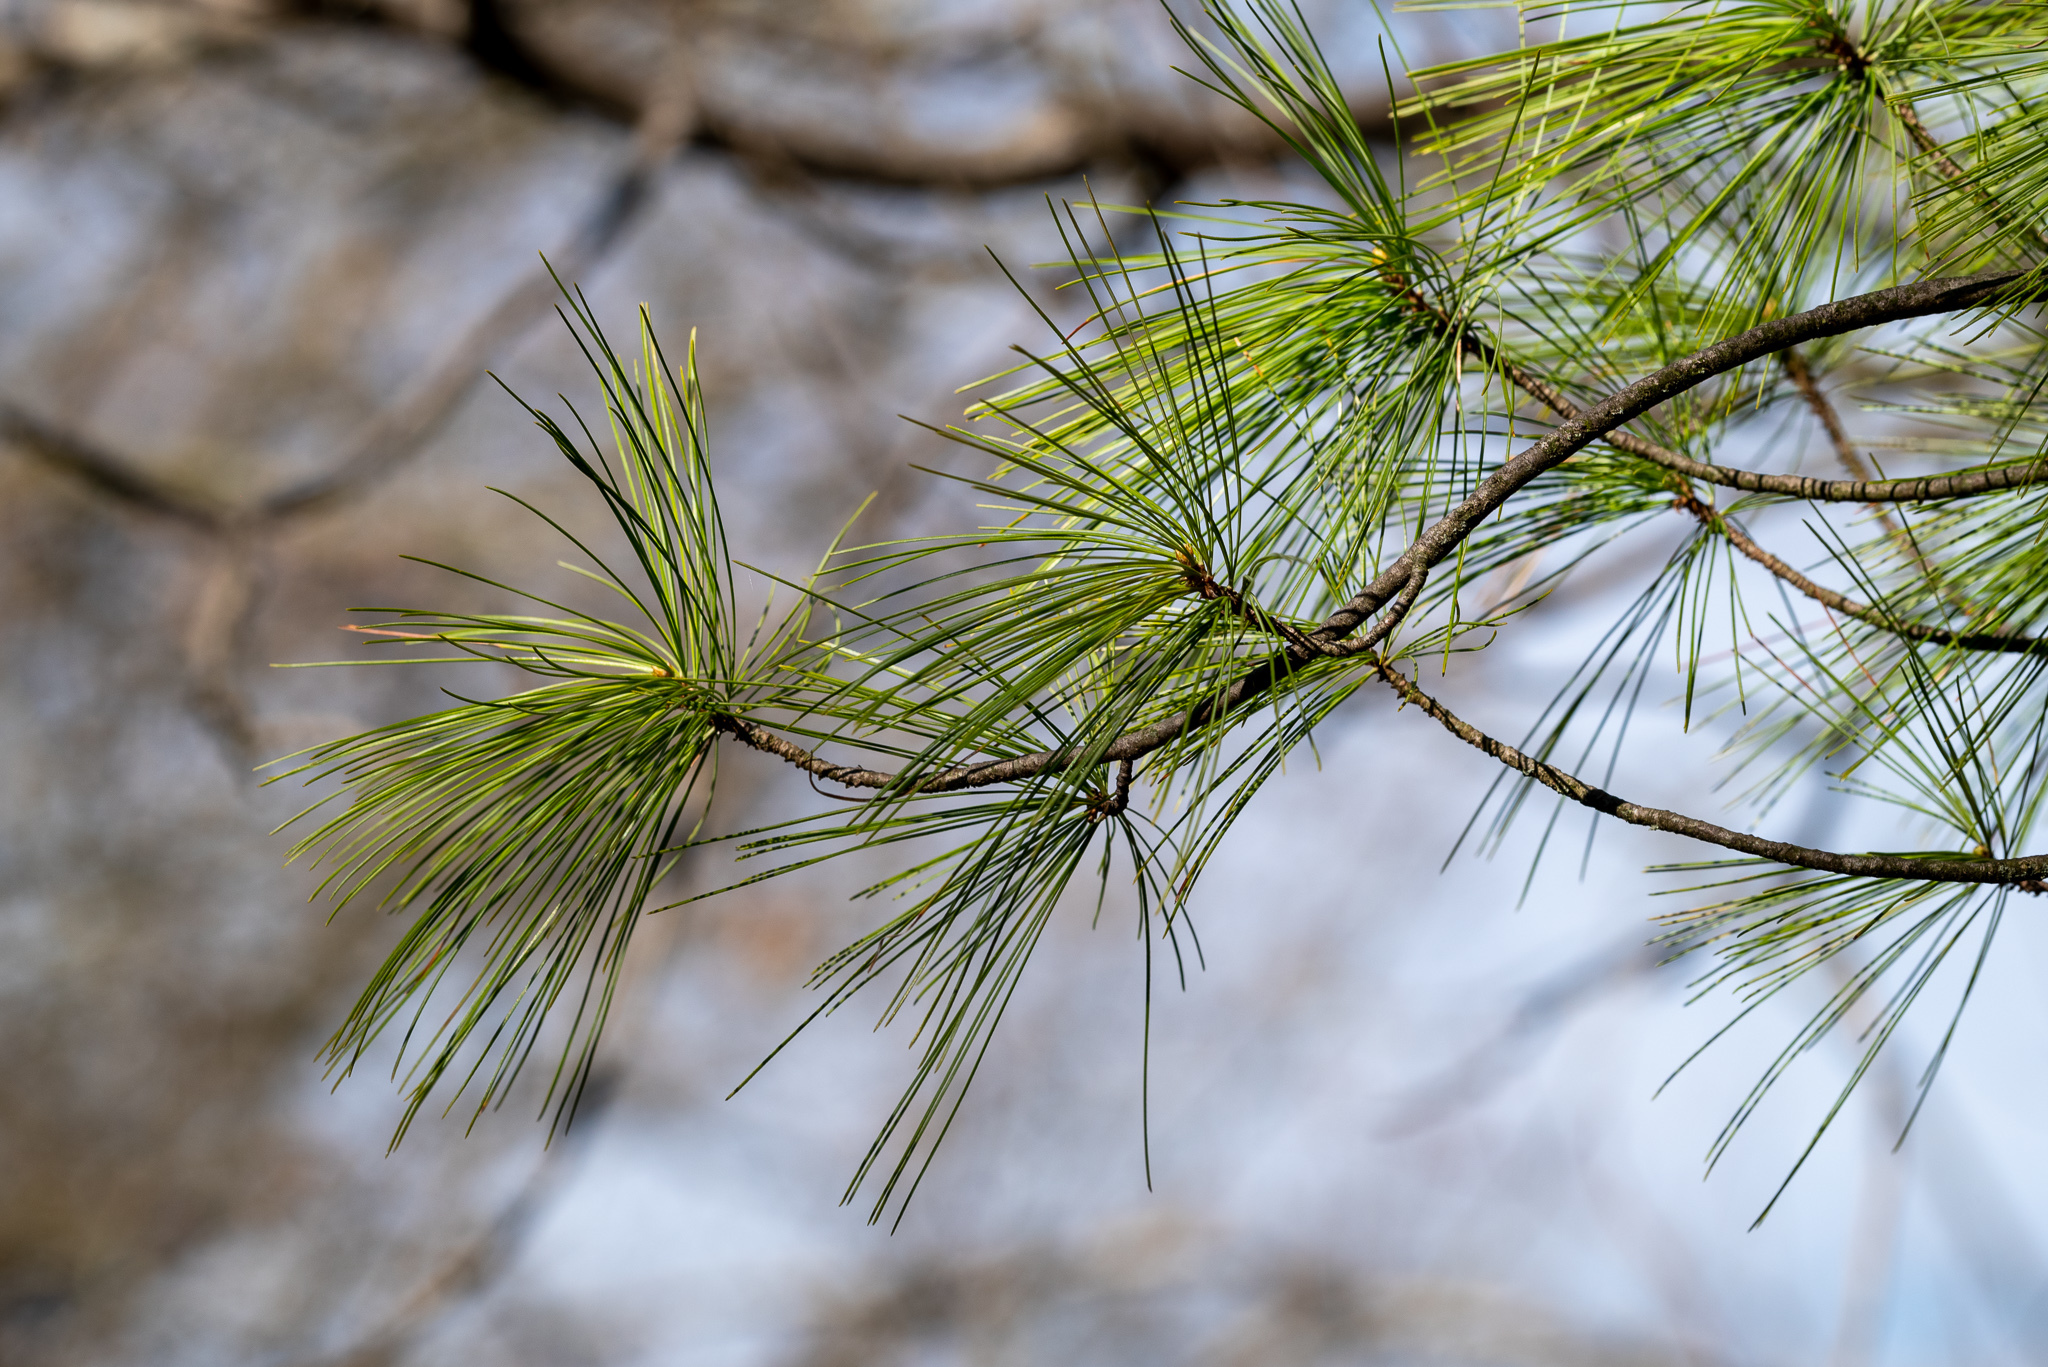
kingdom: Plantae
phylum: Tracheophyta
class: Pinopsida
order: Pinales
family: Pinaceae
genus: Pinus
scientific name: Pinus strobus
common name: Weymouth pine
